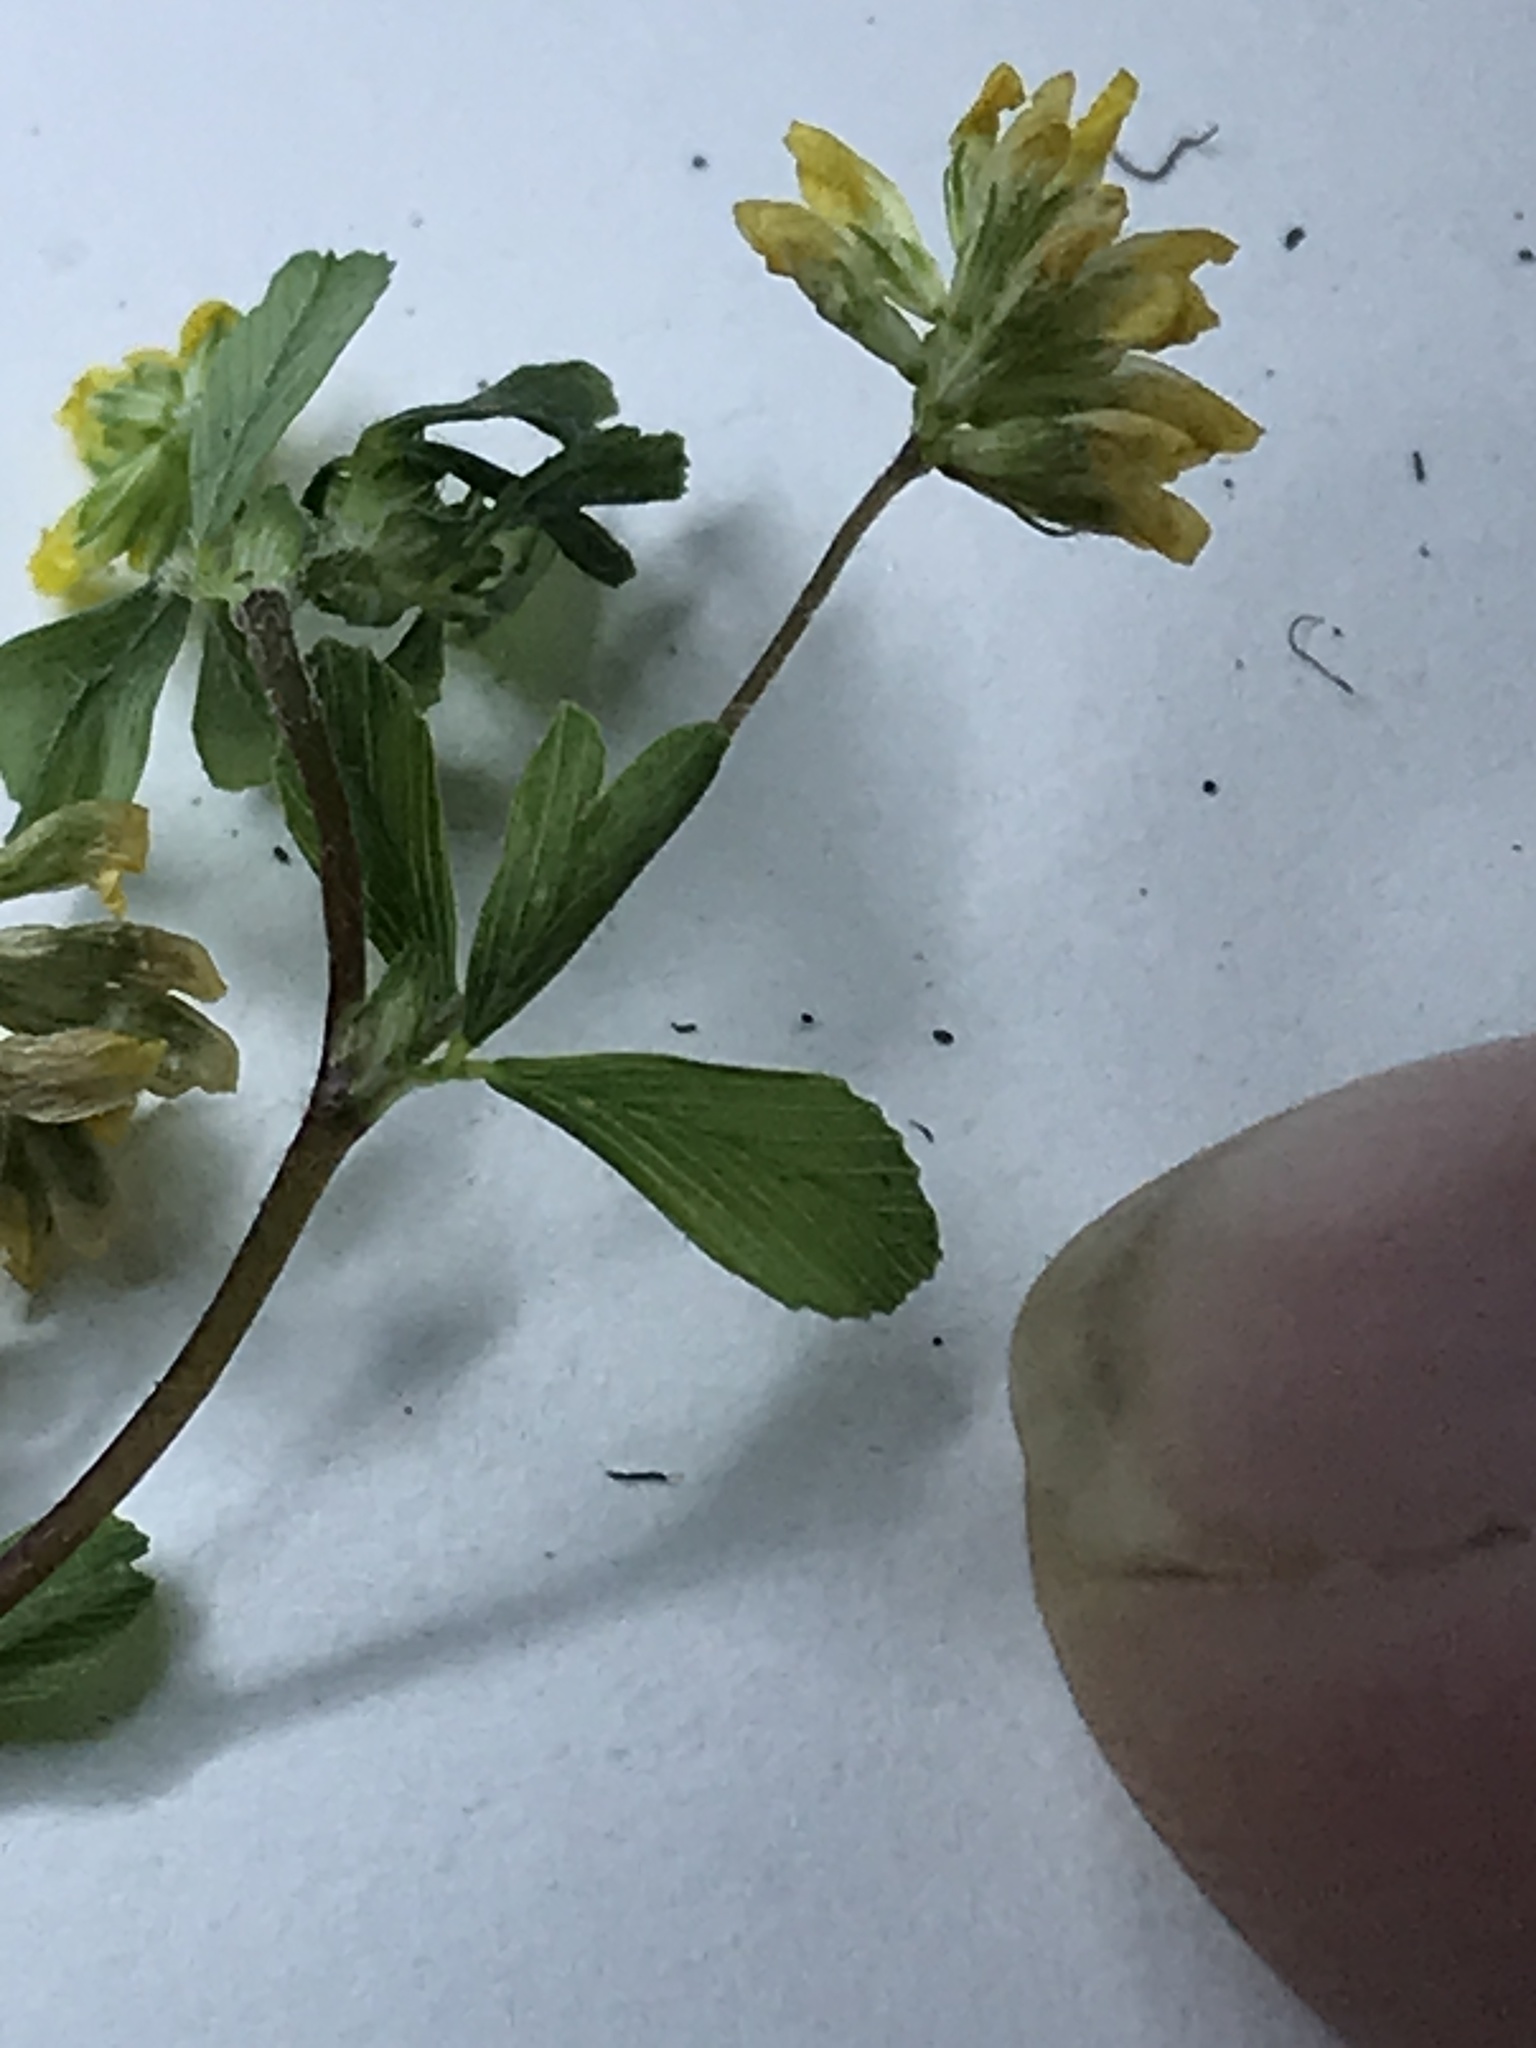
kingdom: Plantae
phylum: Tracheophyta
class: Magnoliopsida
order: Fabales
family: Fabaceae
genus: Trifolium
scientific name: Trifolium dubium
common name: Suckling clover
